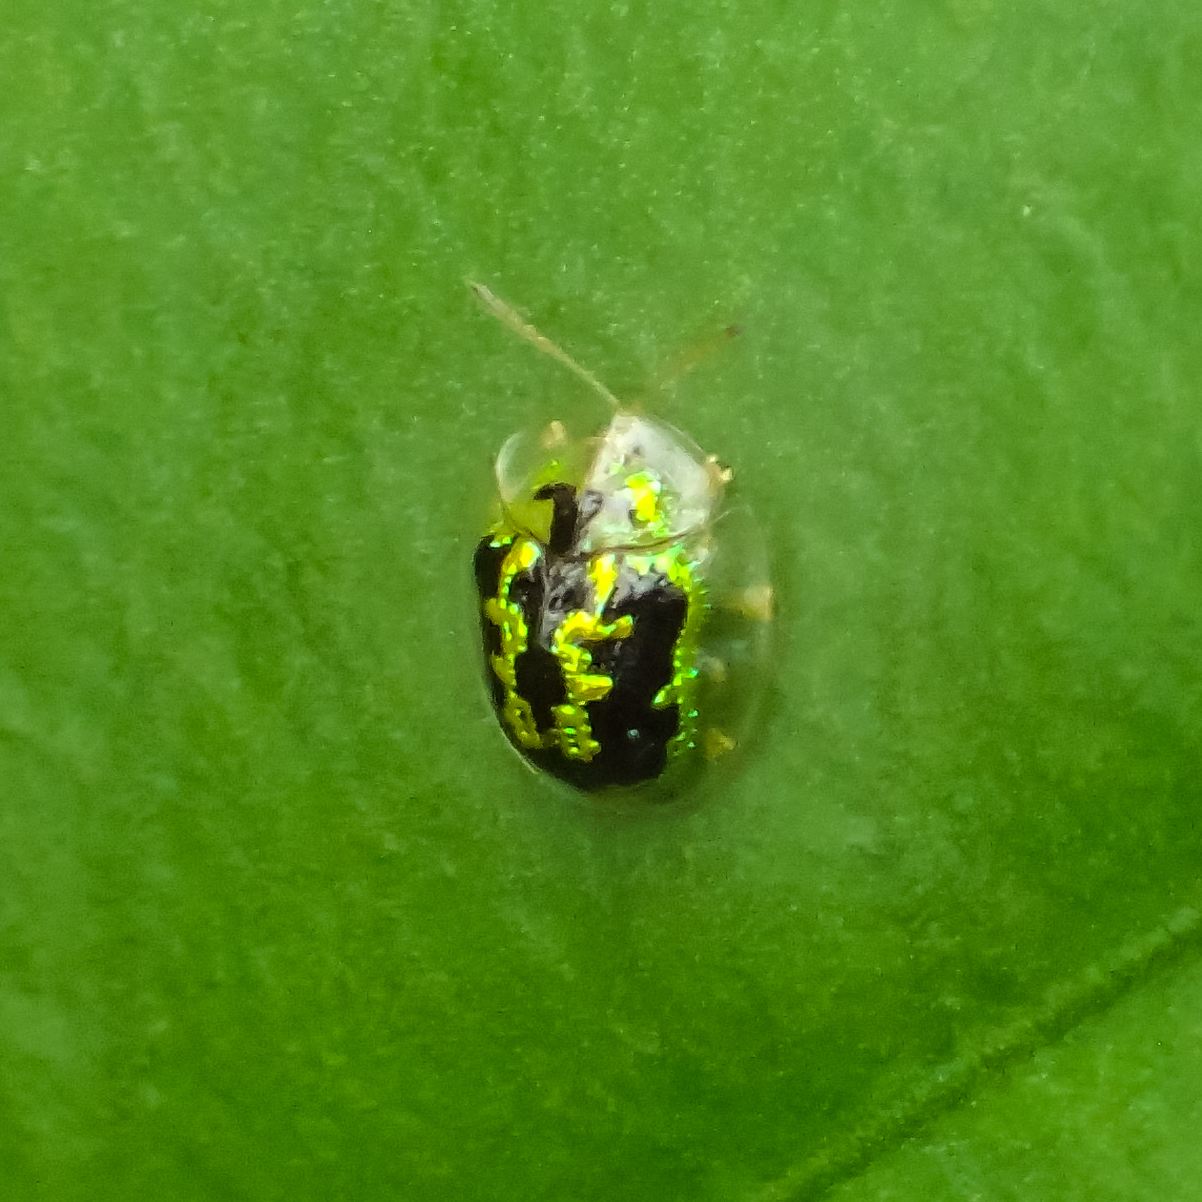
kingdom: Animalia
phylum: Arthropoda
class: Insecta
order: Coleoptera
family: Chrysomelidae
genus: Cassida
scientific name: Cassida circumdata
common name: Tortoise beetle
